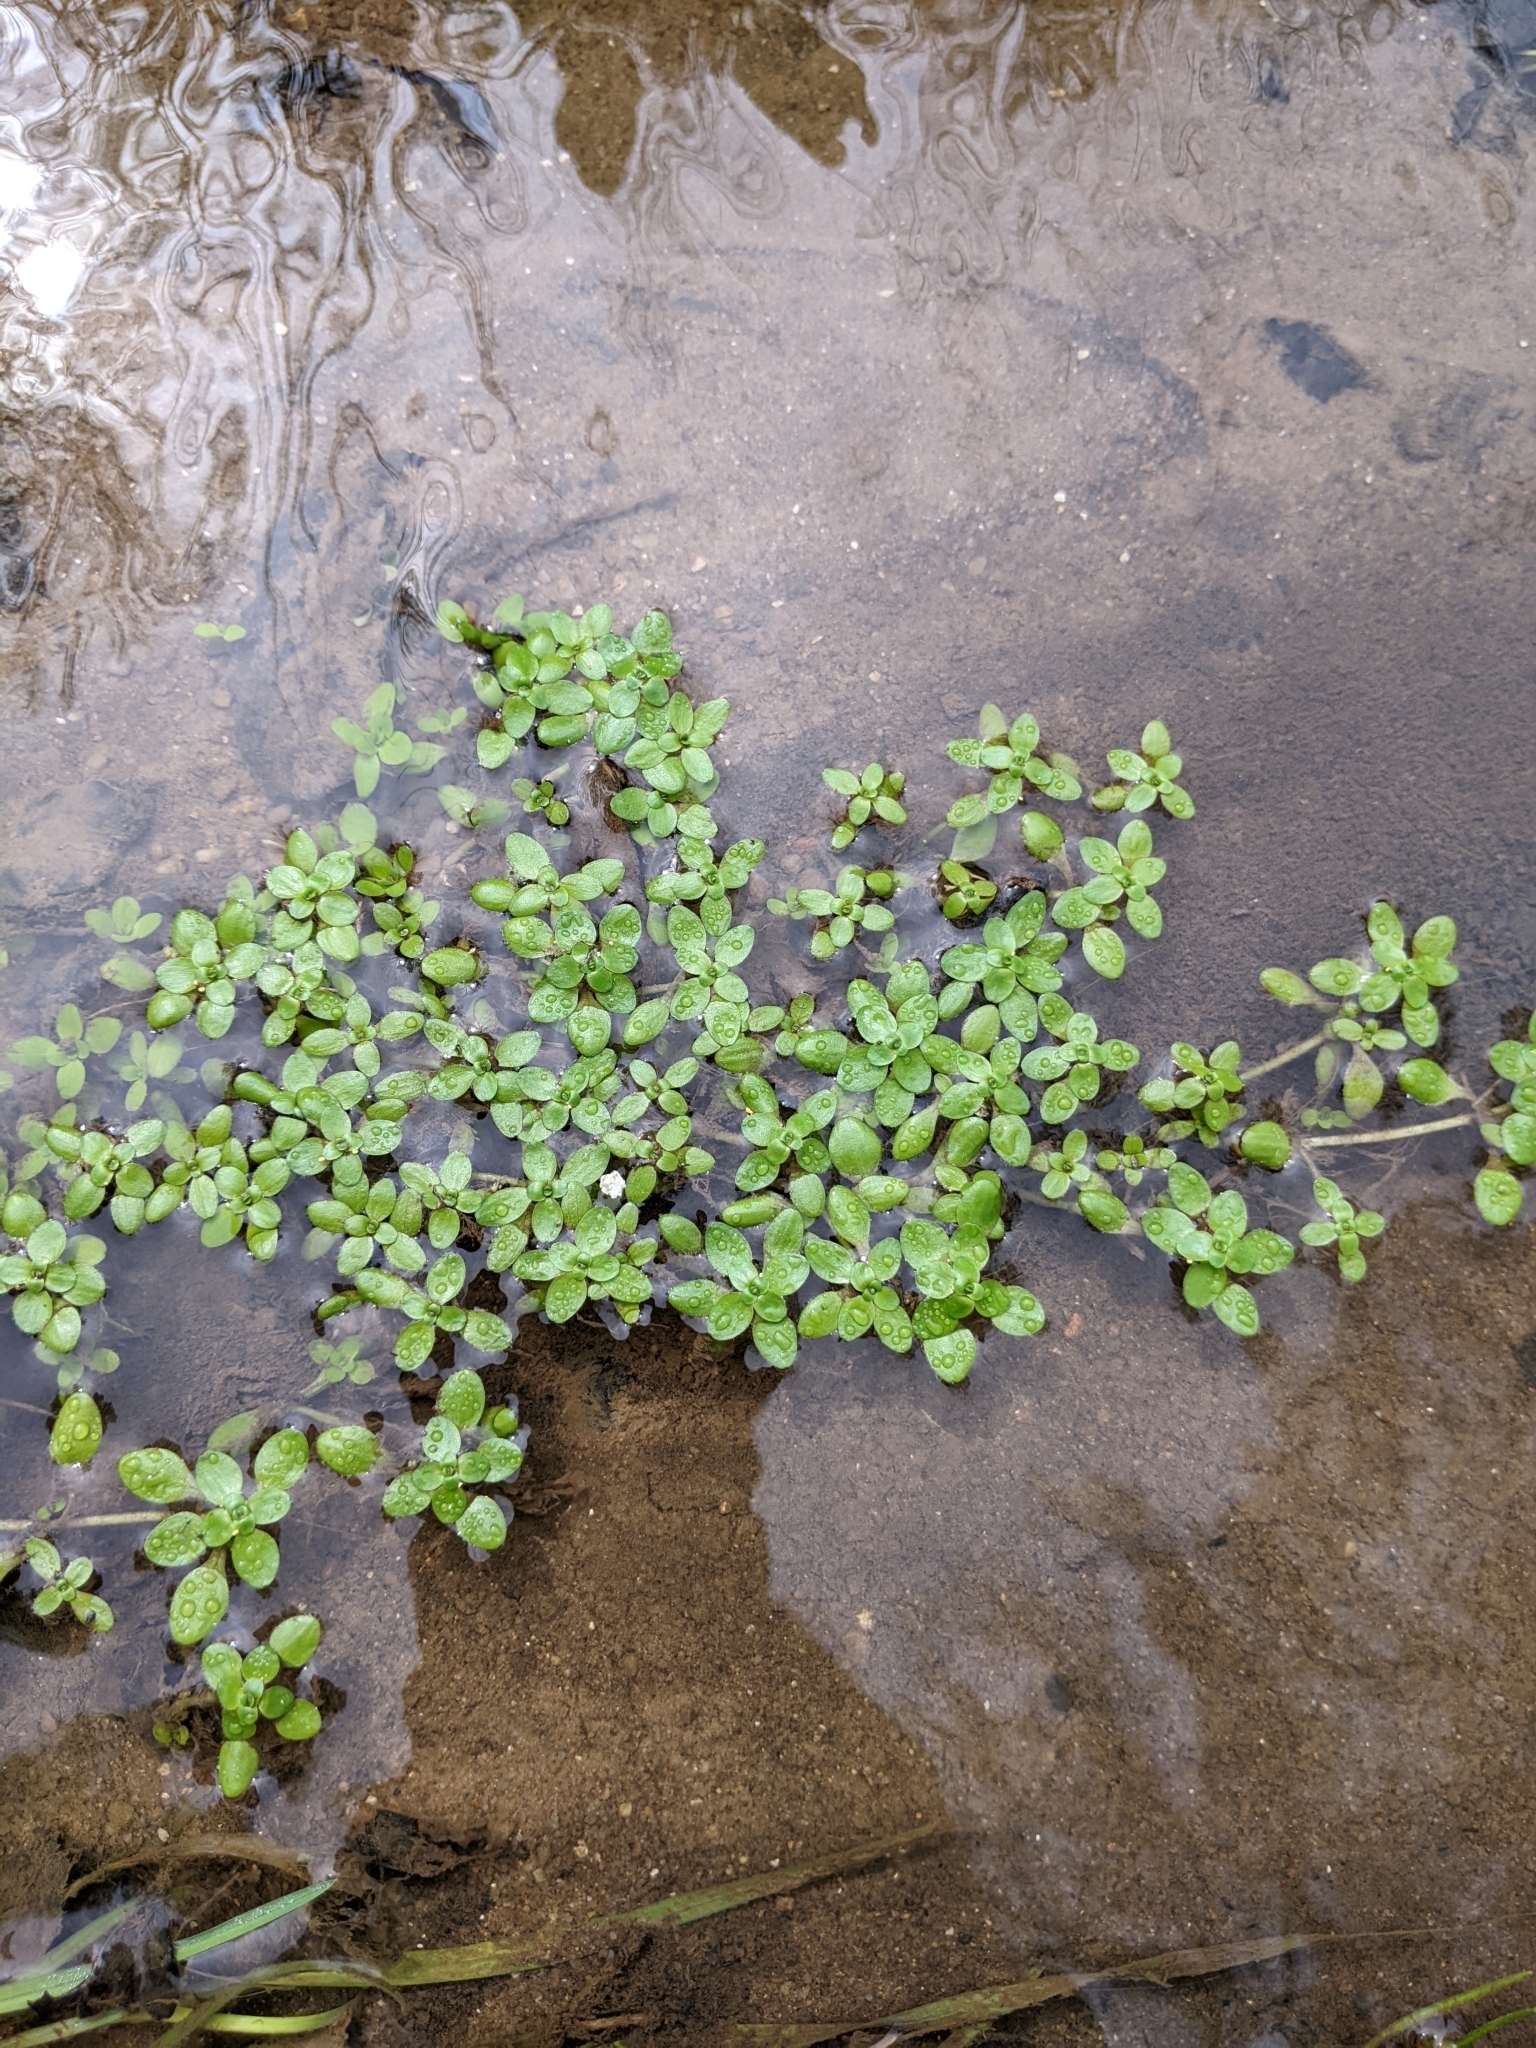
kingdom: Plantae
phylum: Tracheophyta
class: Magnoliopsida
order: Lamiales
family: Plantaginaceae
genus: Callitriche
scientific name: Callitriche stagnalis
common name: Common water-starwort
